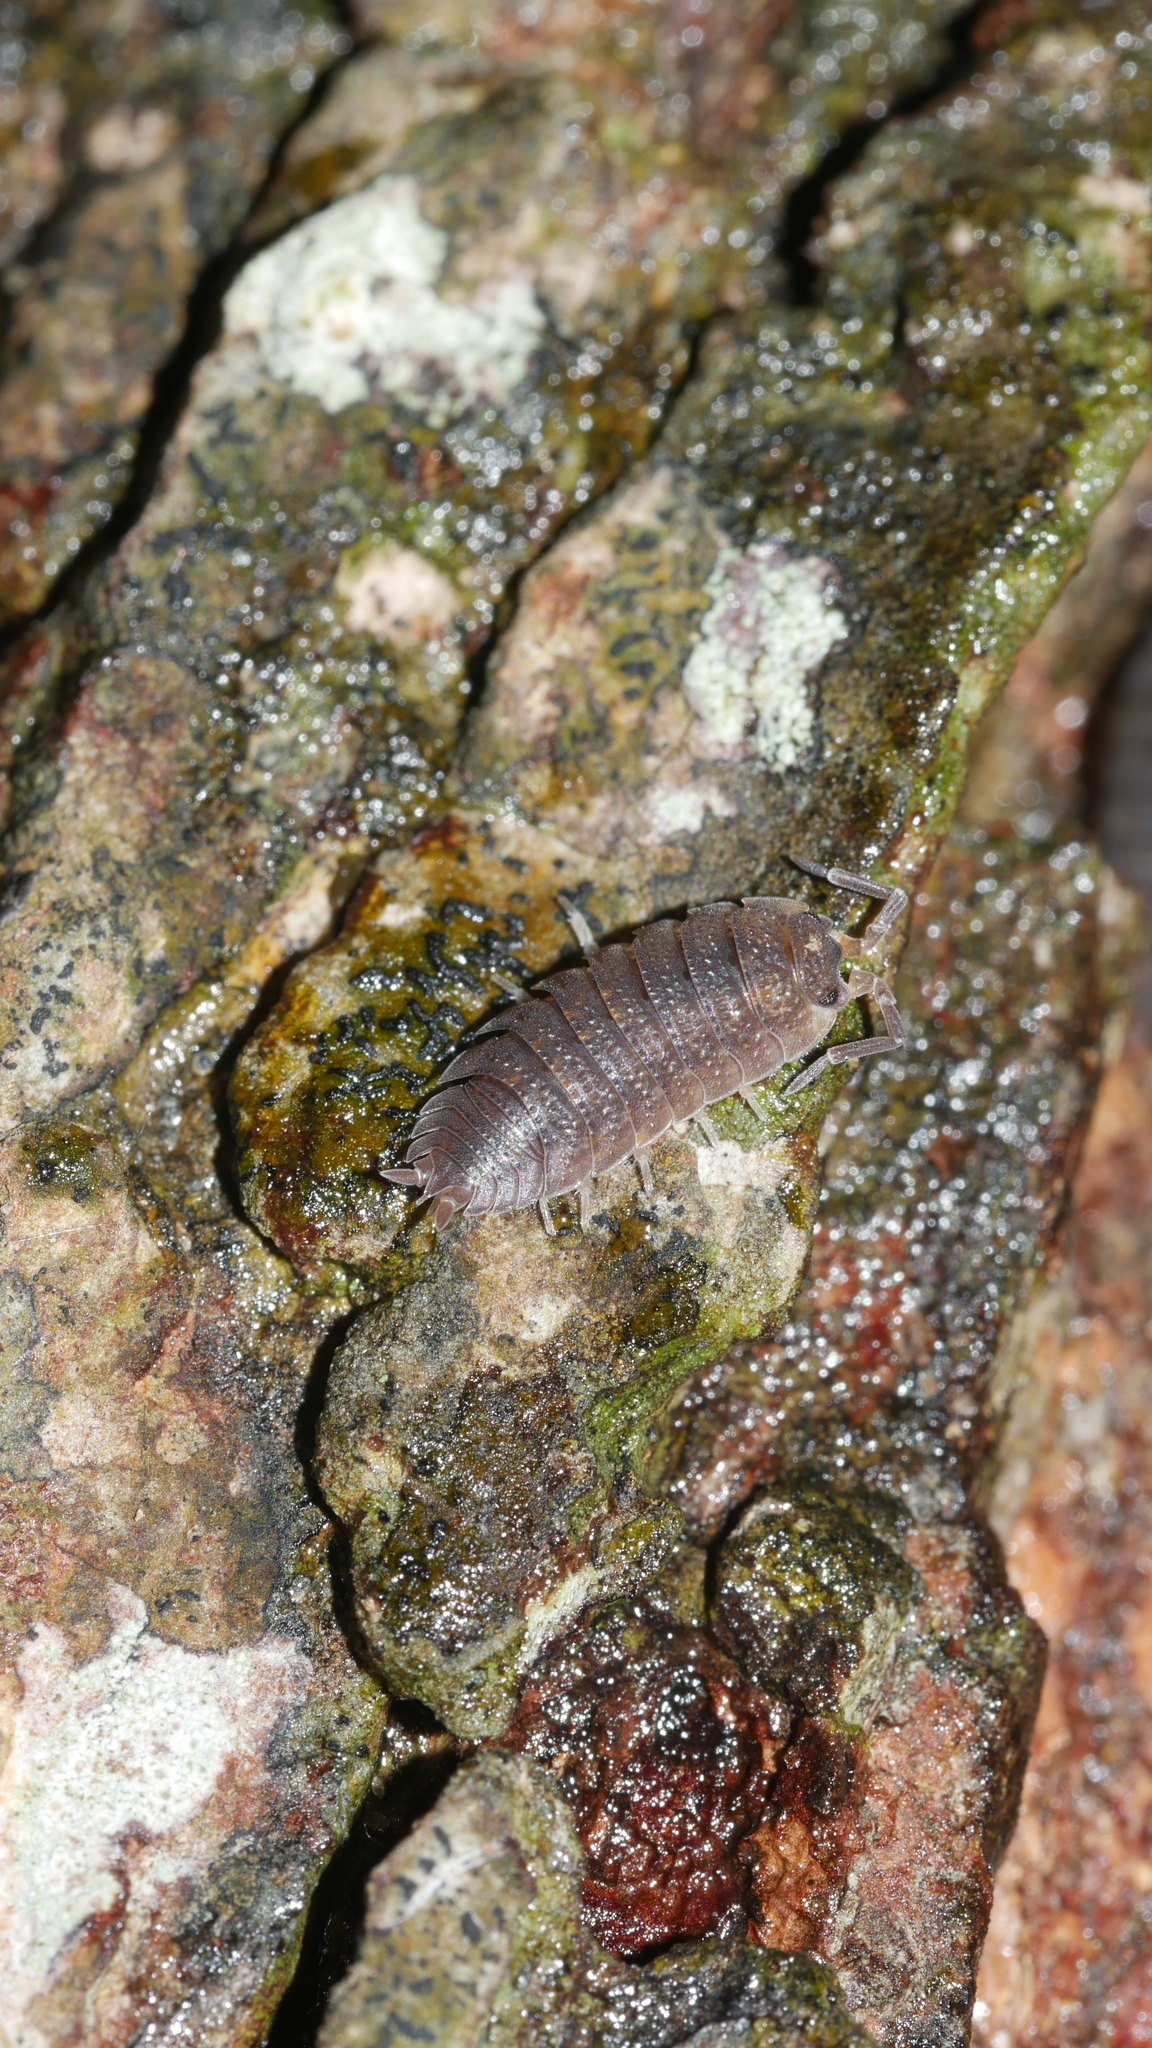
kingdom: Animalia
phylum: Arthropoda
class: Malacostraca
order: Isopoda
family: Porcellionidae
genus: Porcellio
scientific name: Porcellio scaber
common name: Common rough woodlouse
